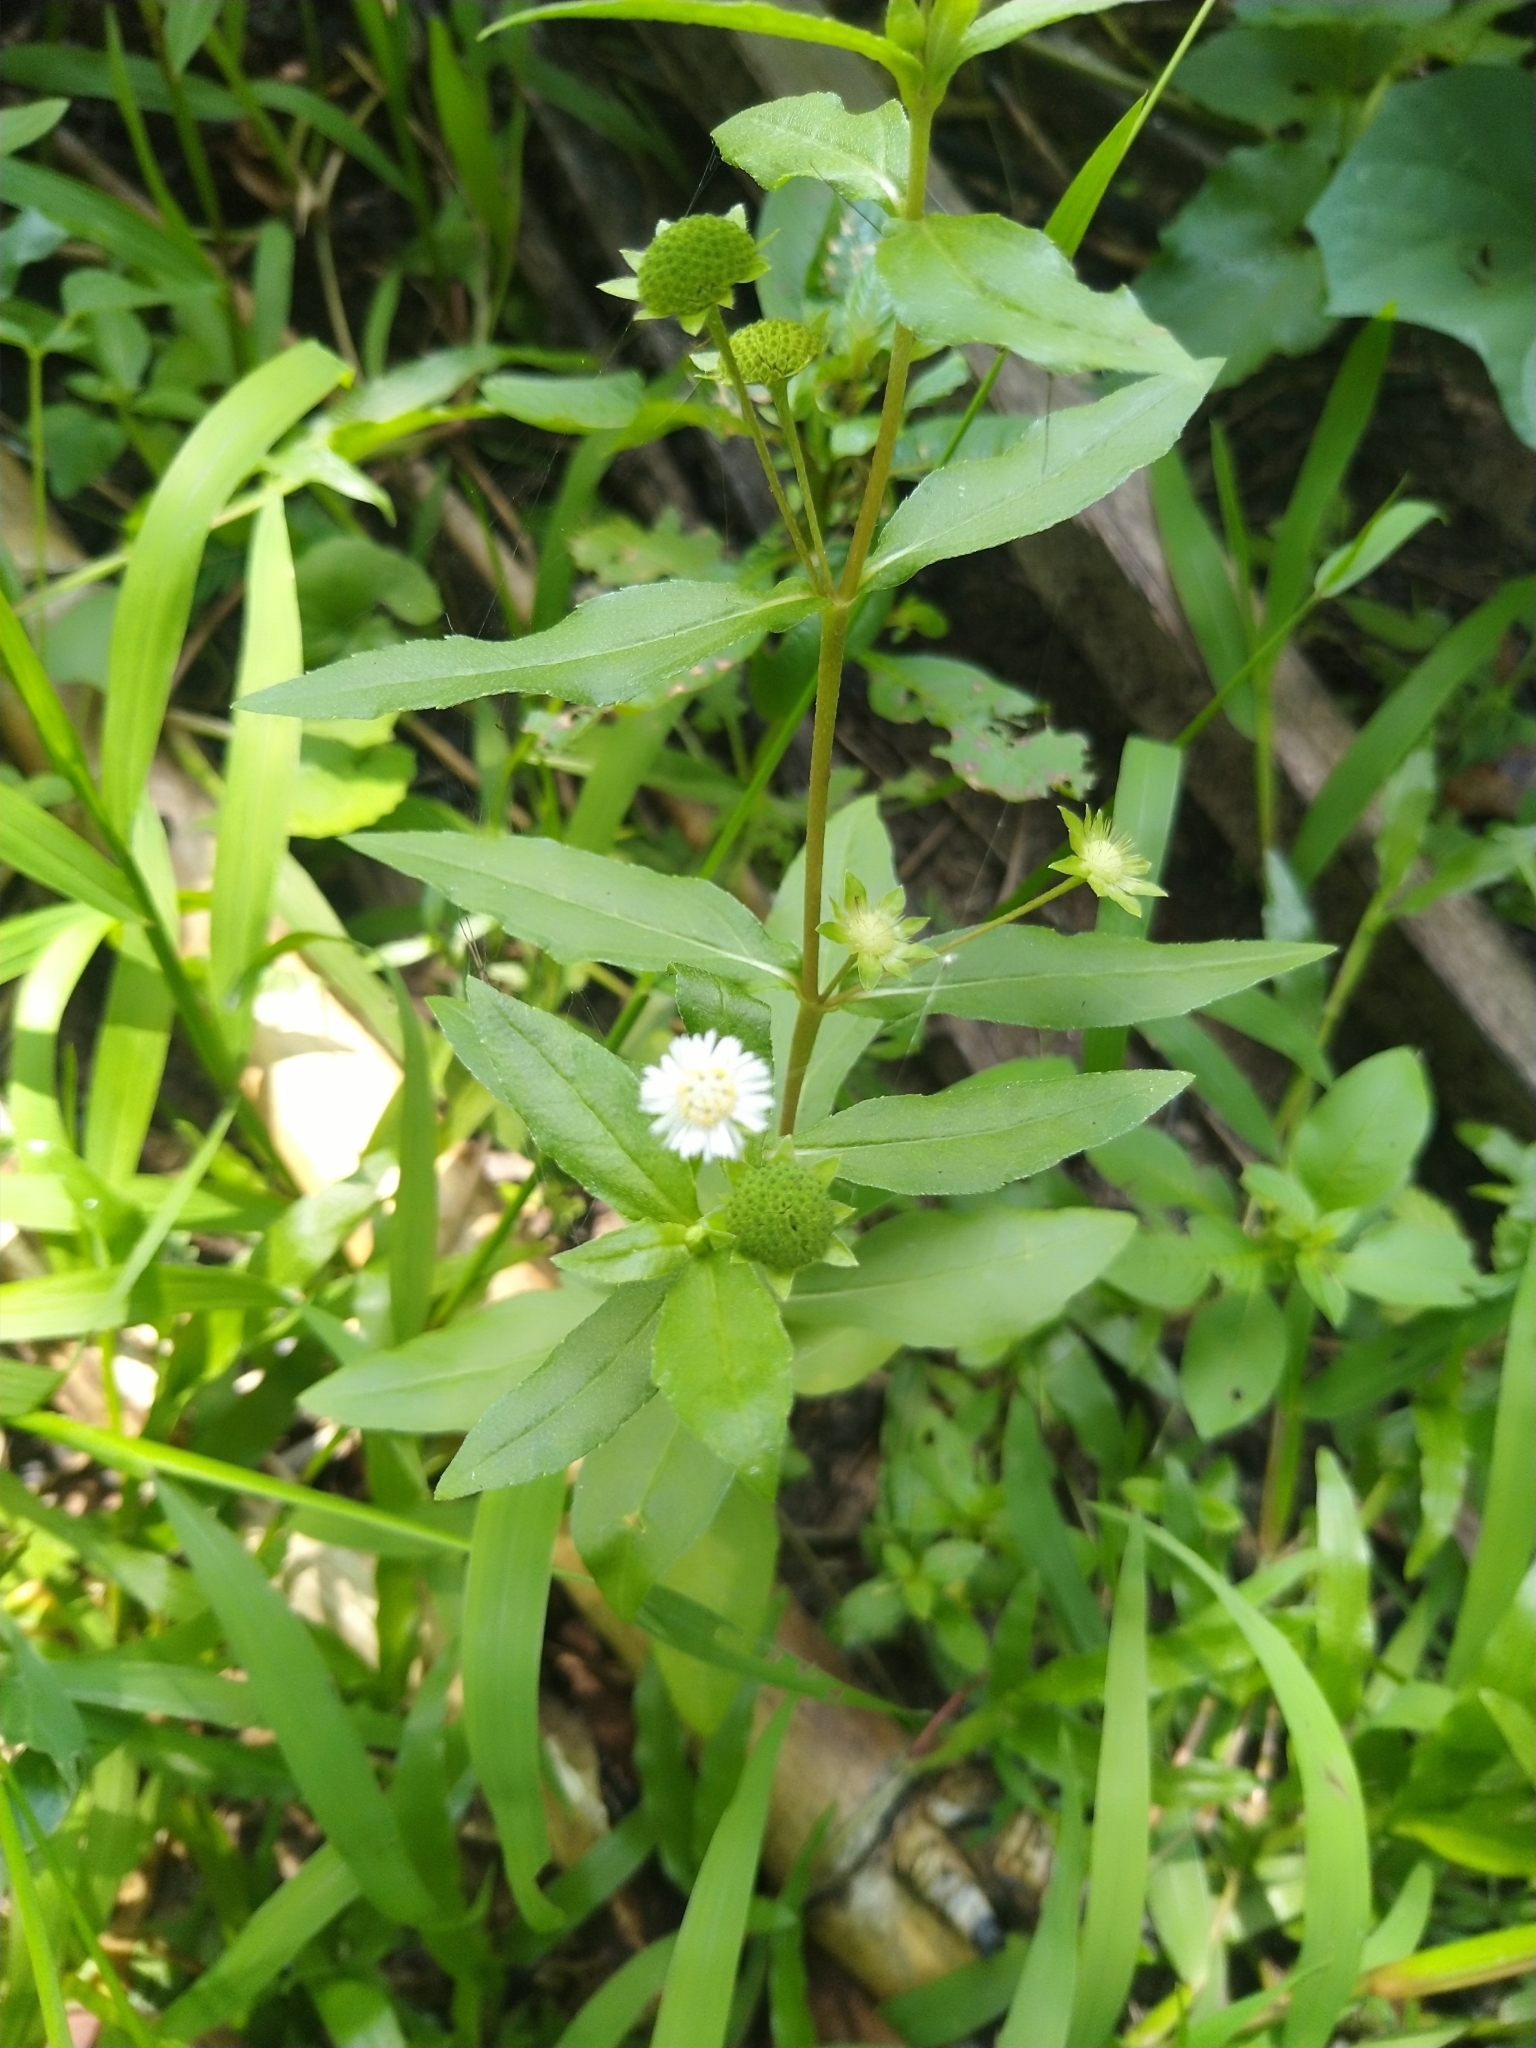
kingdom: Plantae
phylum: Tracheophyta
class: Magnoliopsida
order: Asterales
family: Asteraceae
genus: Eclipta
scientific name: Eclipta prostrata
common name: False daisy
